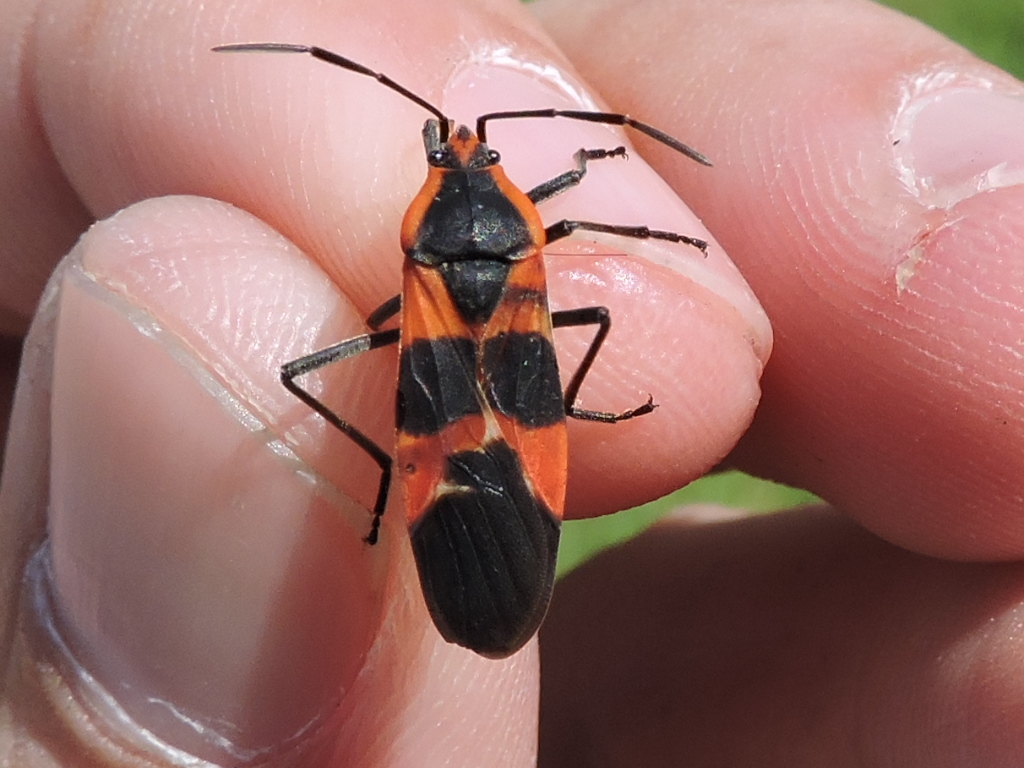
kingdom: Animalia
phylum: Arthropoda
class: Insecta
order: Hemiptera
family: Lygaeidae
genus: Oncopeltus
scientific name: Oncopeltus fasciatus
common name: Large milkweed bug
